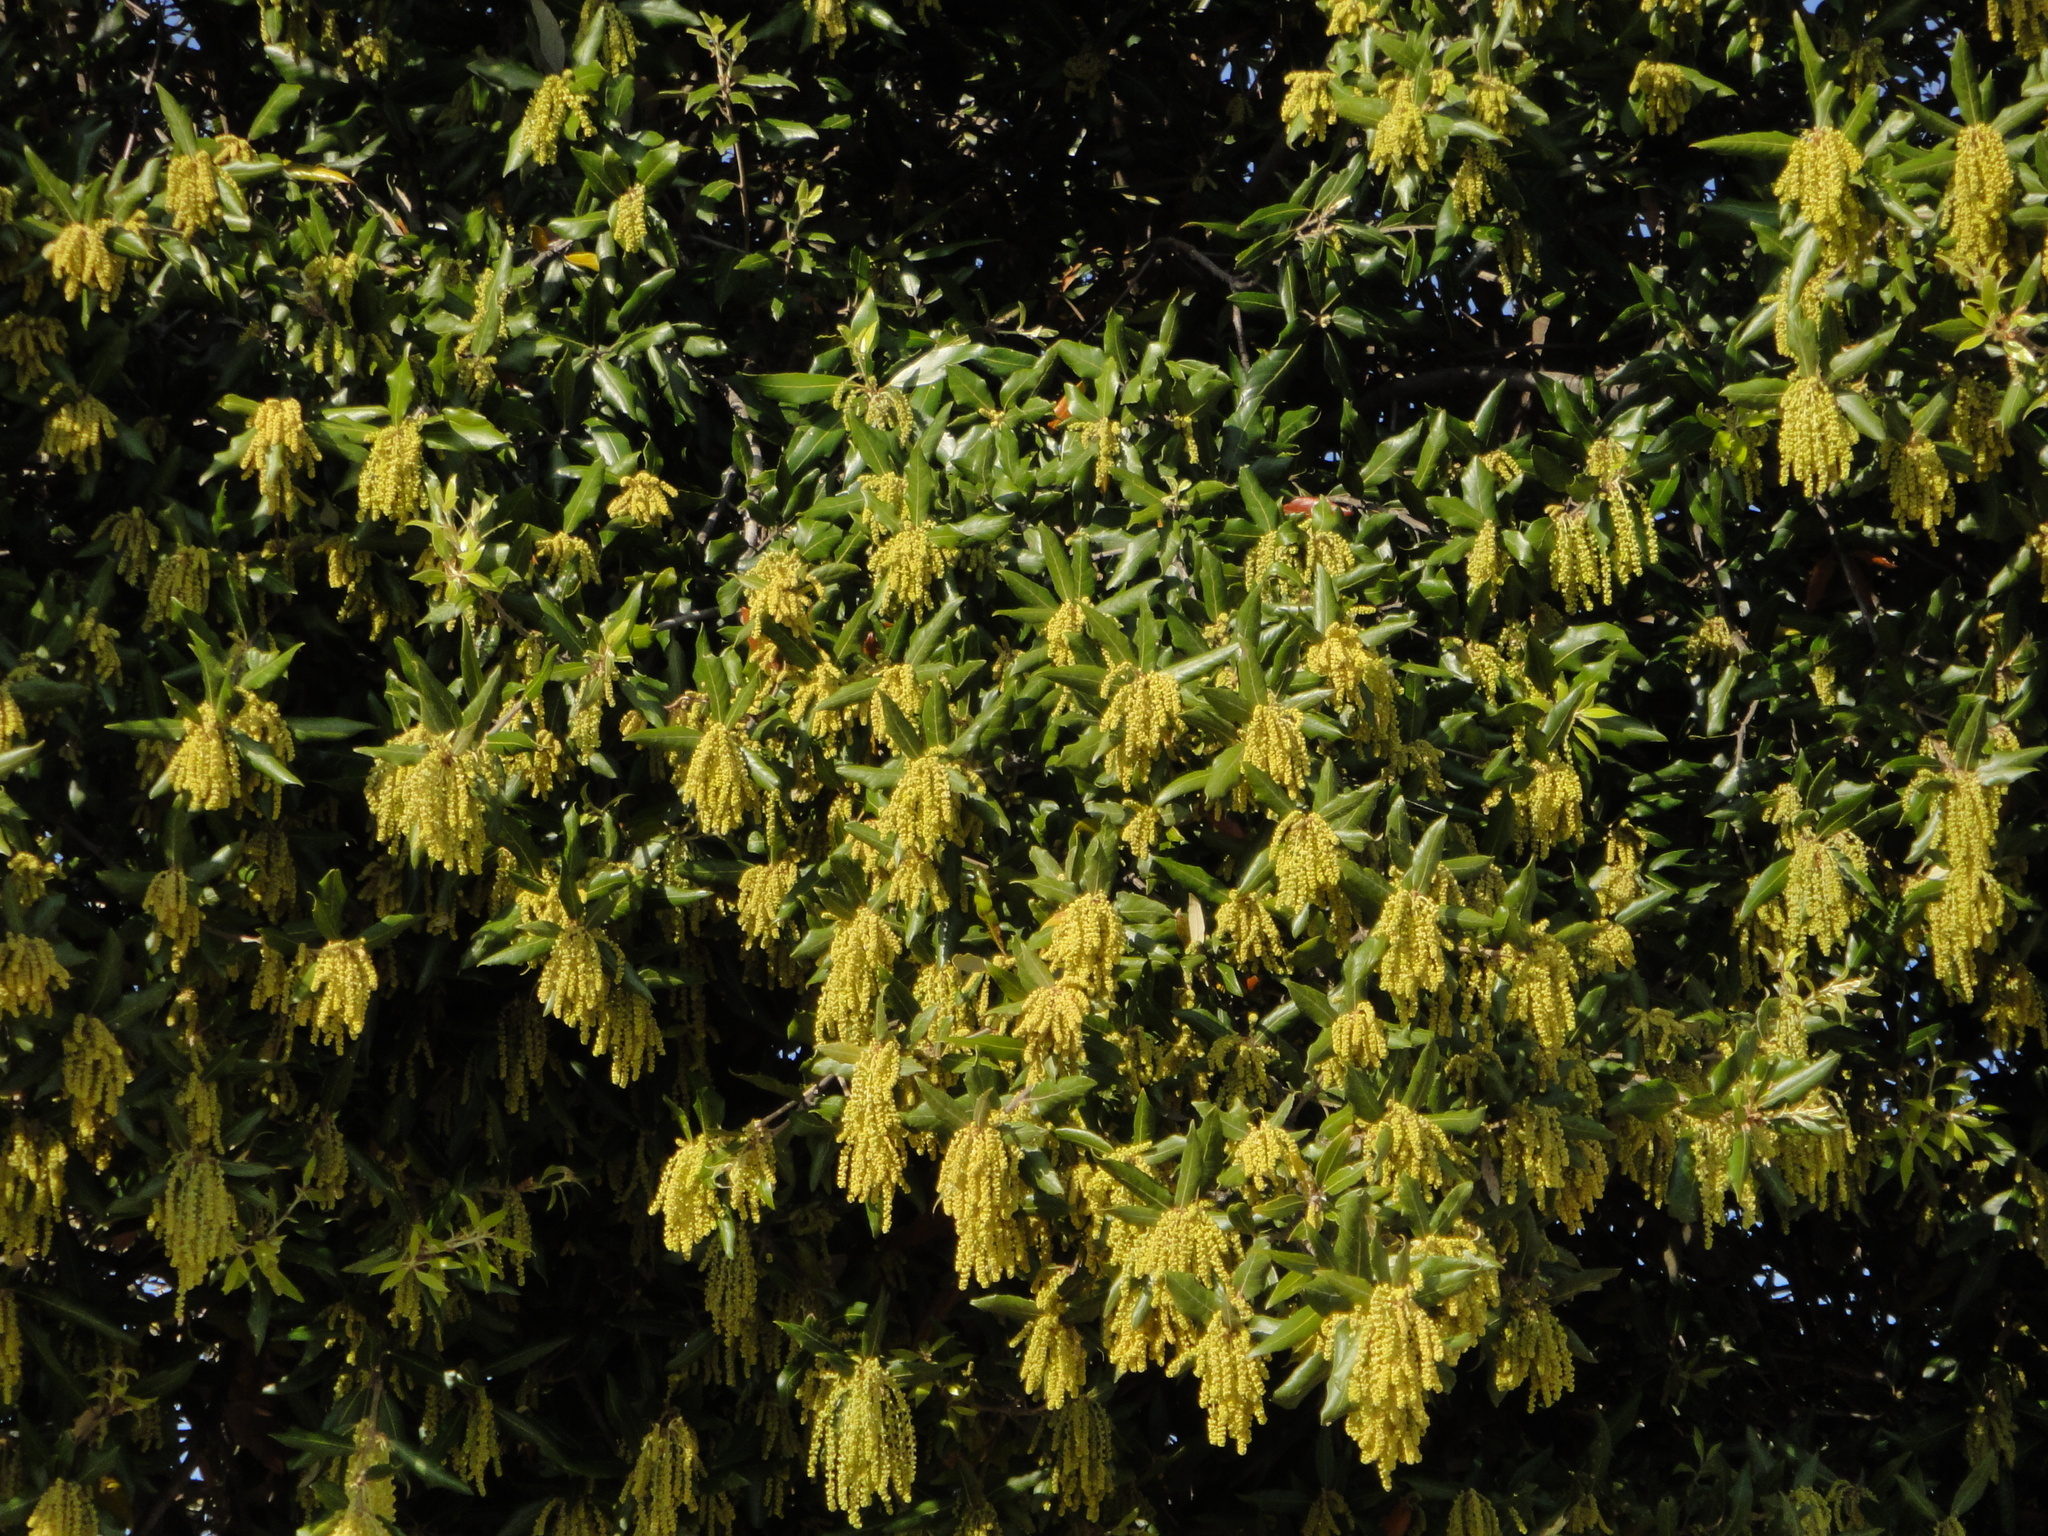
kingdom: Plantae
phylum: Tracheophyta
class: Magnoliopsida
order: Fagales
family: Fagaceae
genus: Quercus
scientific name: Quercus ilex
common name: Evergreen oak
